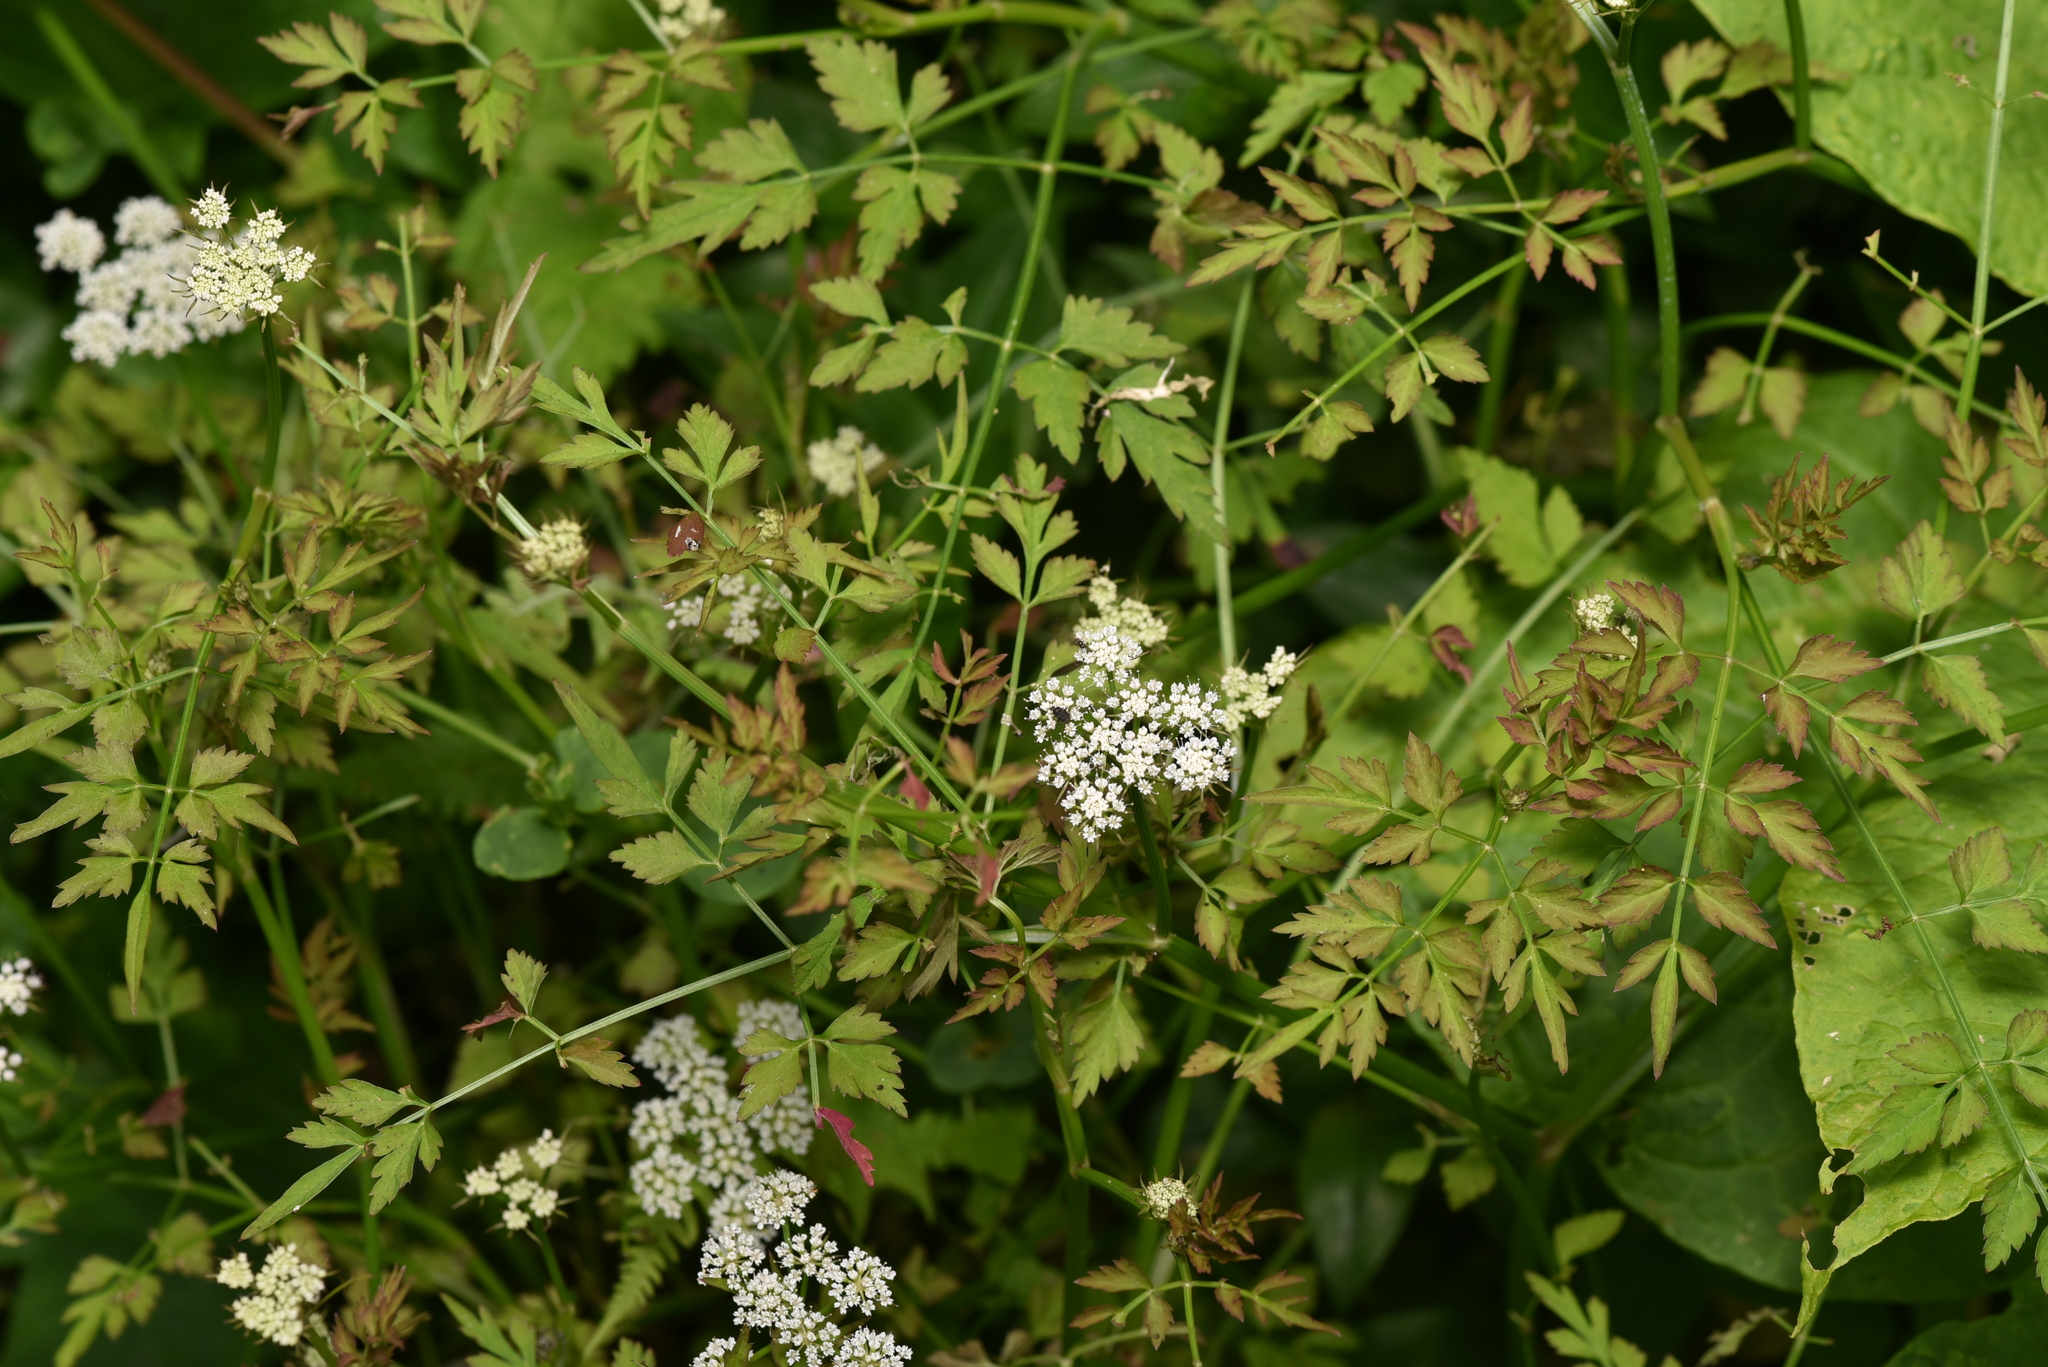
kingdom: Plantae
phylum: Tracheophyta
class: Magnoliopsida
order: Apiales
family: Apiaceae
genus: Oenanthe
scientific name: Oenanthe javanica
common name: Java water-dropwort
